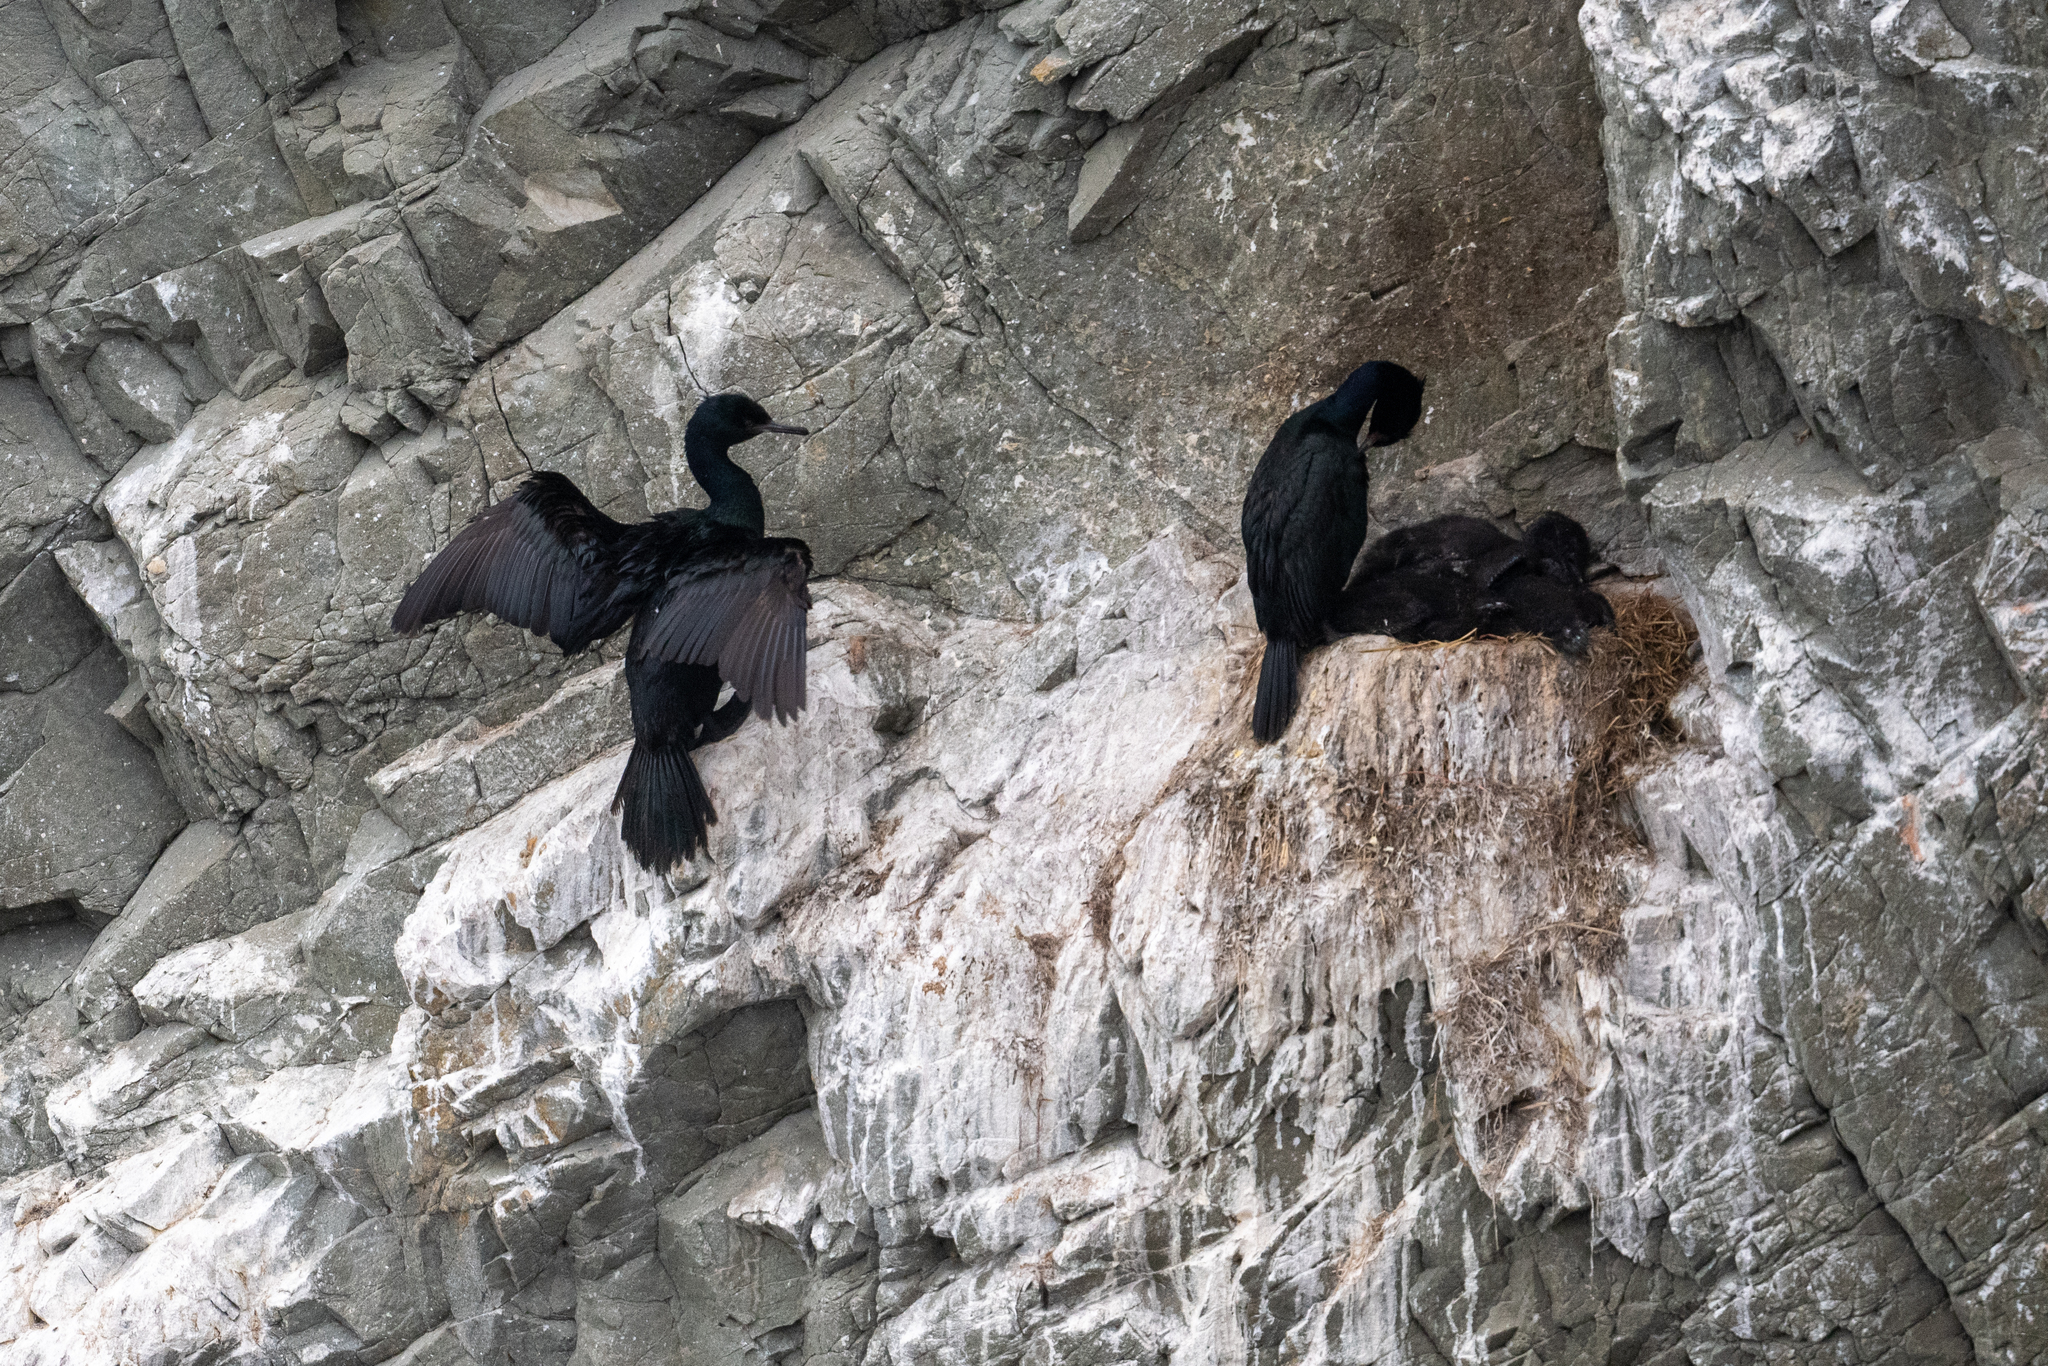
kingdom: Animalia
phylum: Chordata
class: Aves
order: Suliformes
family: Phalacrocoracidae
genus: Phalacrocorax
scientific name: Phalacrocorax pelagicus
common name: Pelagic cormorant
